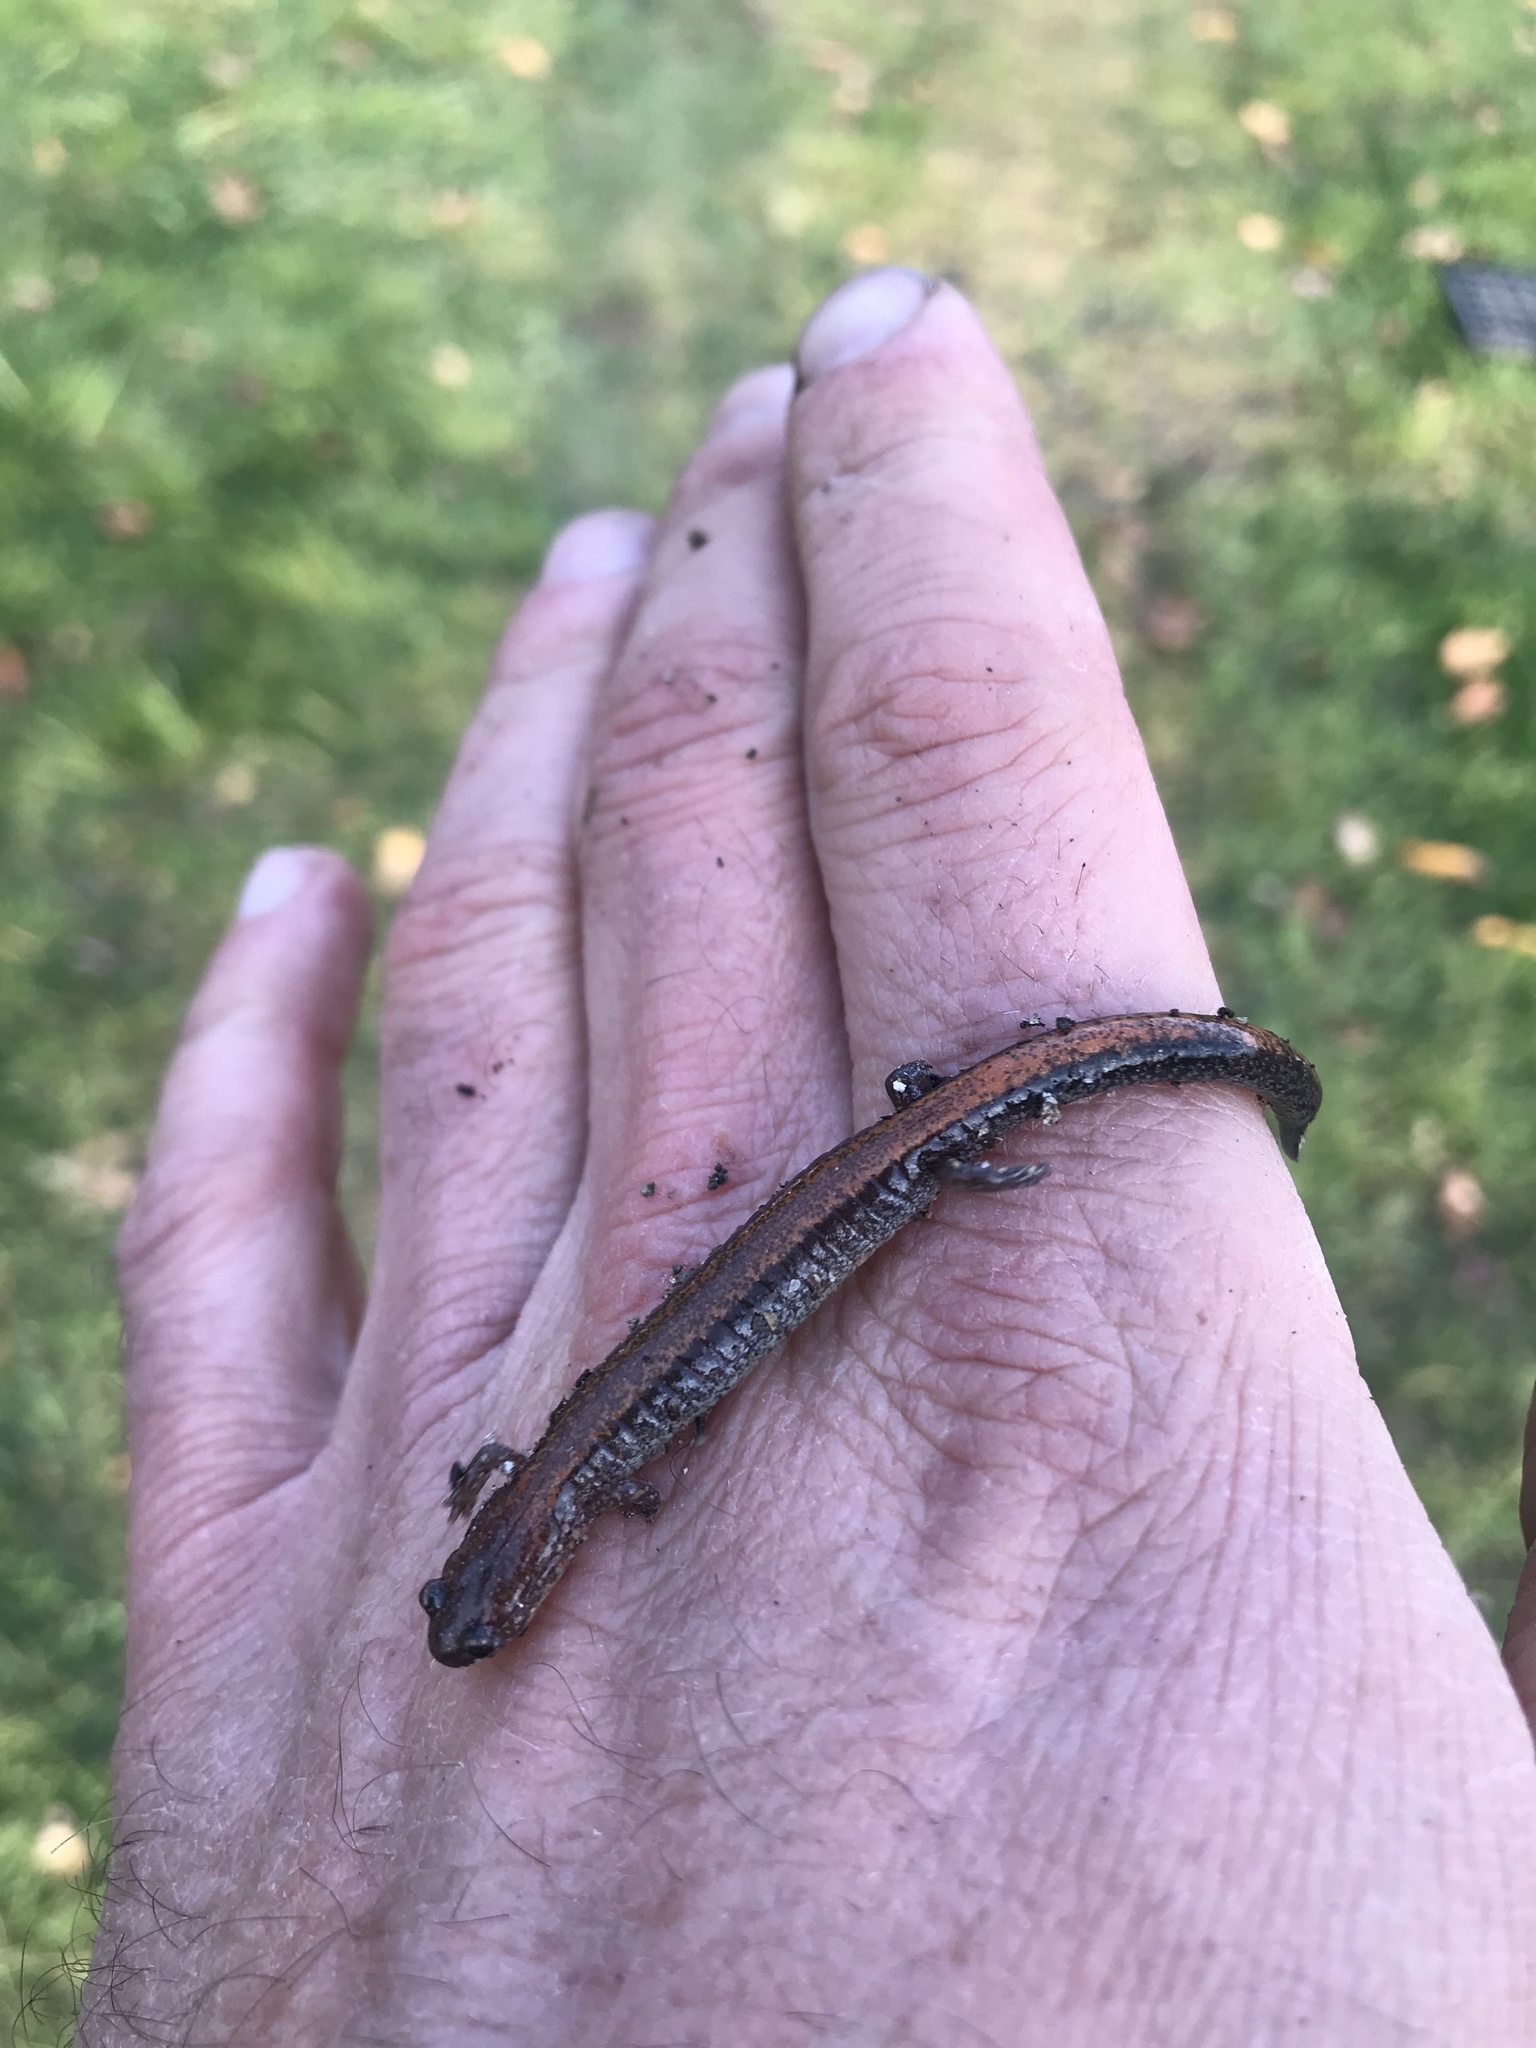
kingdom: Animalia
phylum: Chordata
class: Amphibia
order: Caudata
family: Plethodontidae
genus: Plethodon
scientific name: Plethodon cinereus
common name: Redback salamander
